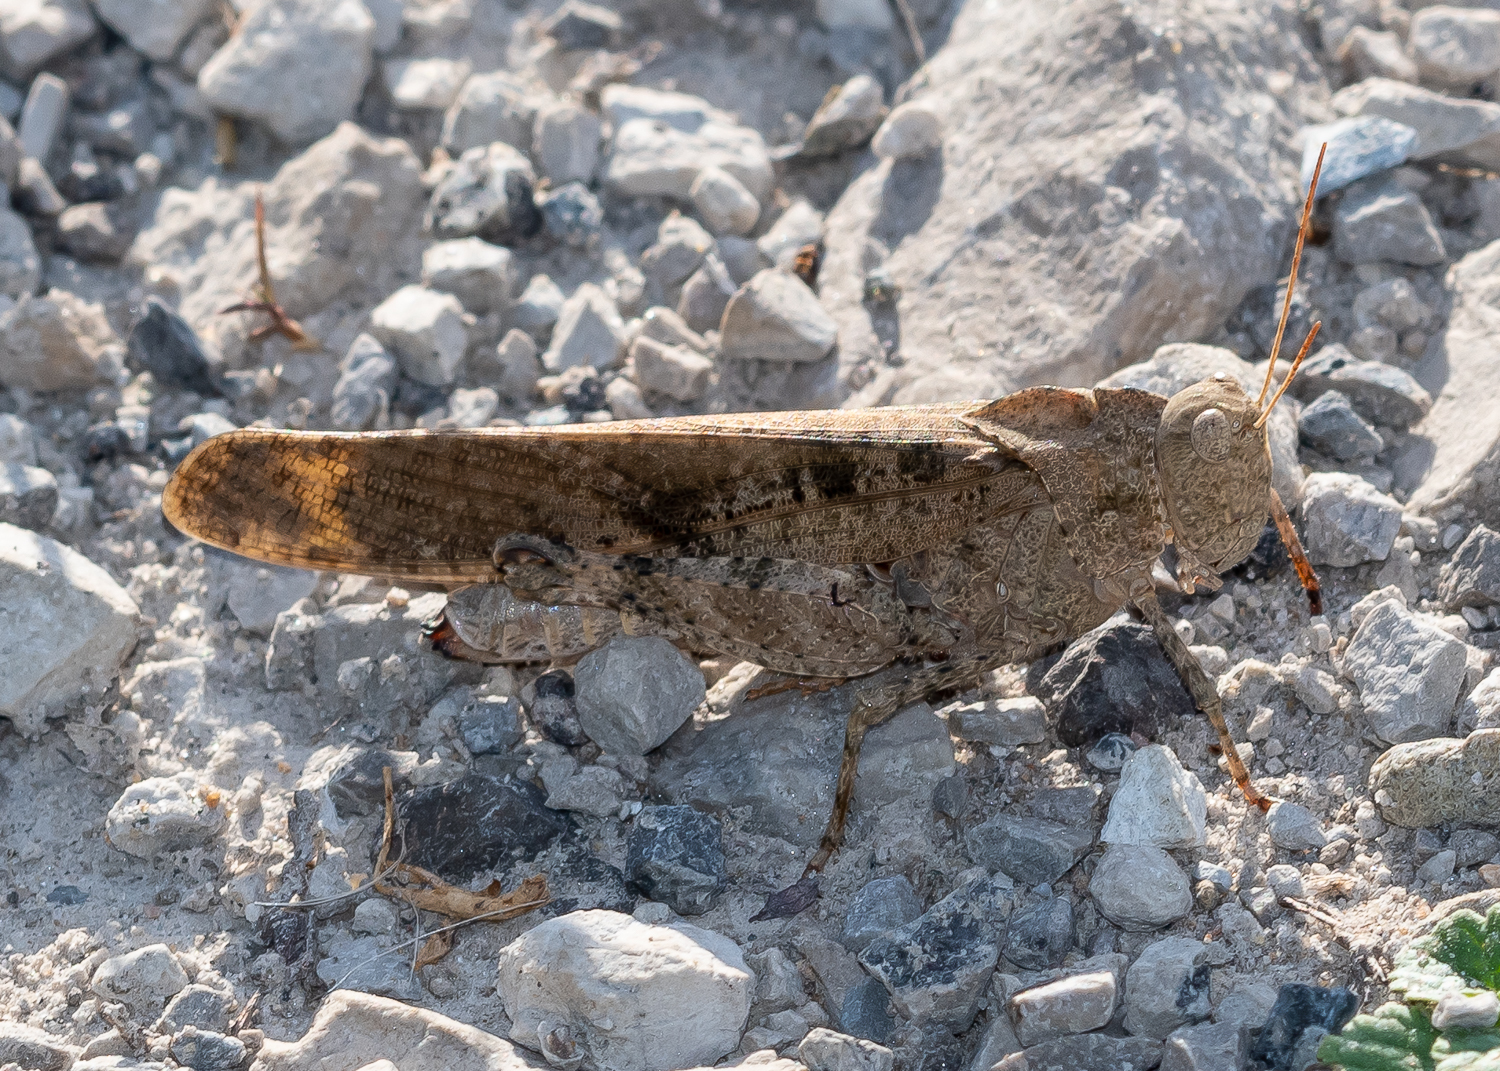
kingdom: Animalia
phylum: Arthropoda
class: Insecta
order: Orthoptera
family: Acrididae
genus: Dissosteira
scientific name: Dissosteira carolina
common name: Carolina grasshopper
